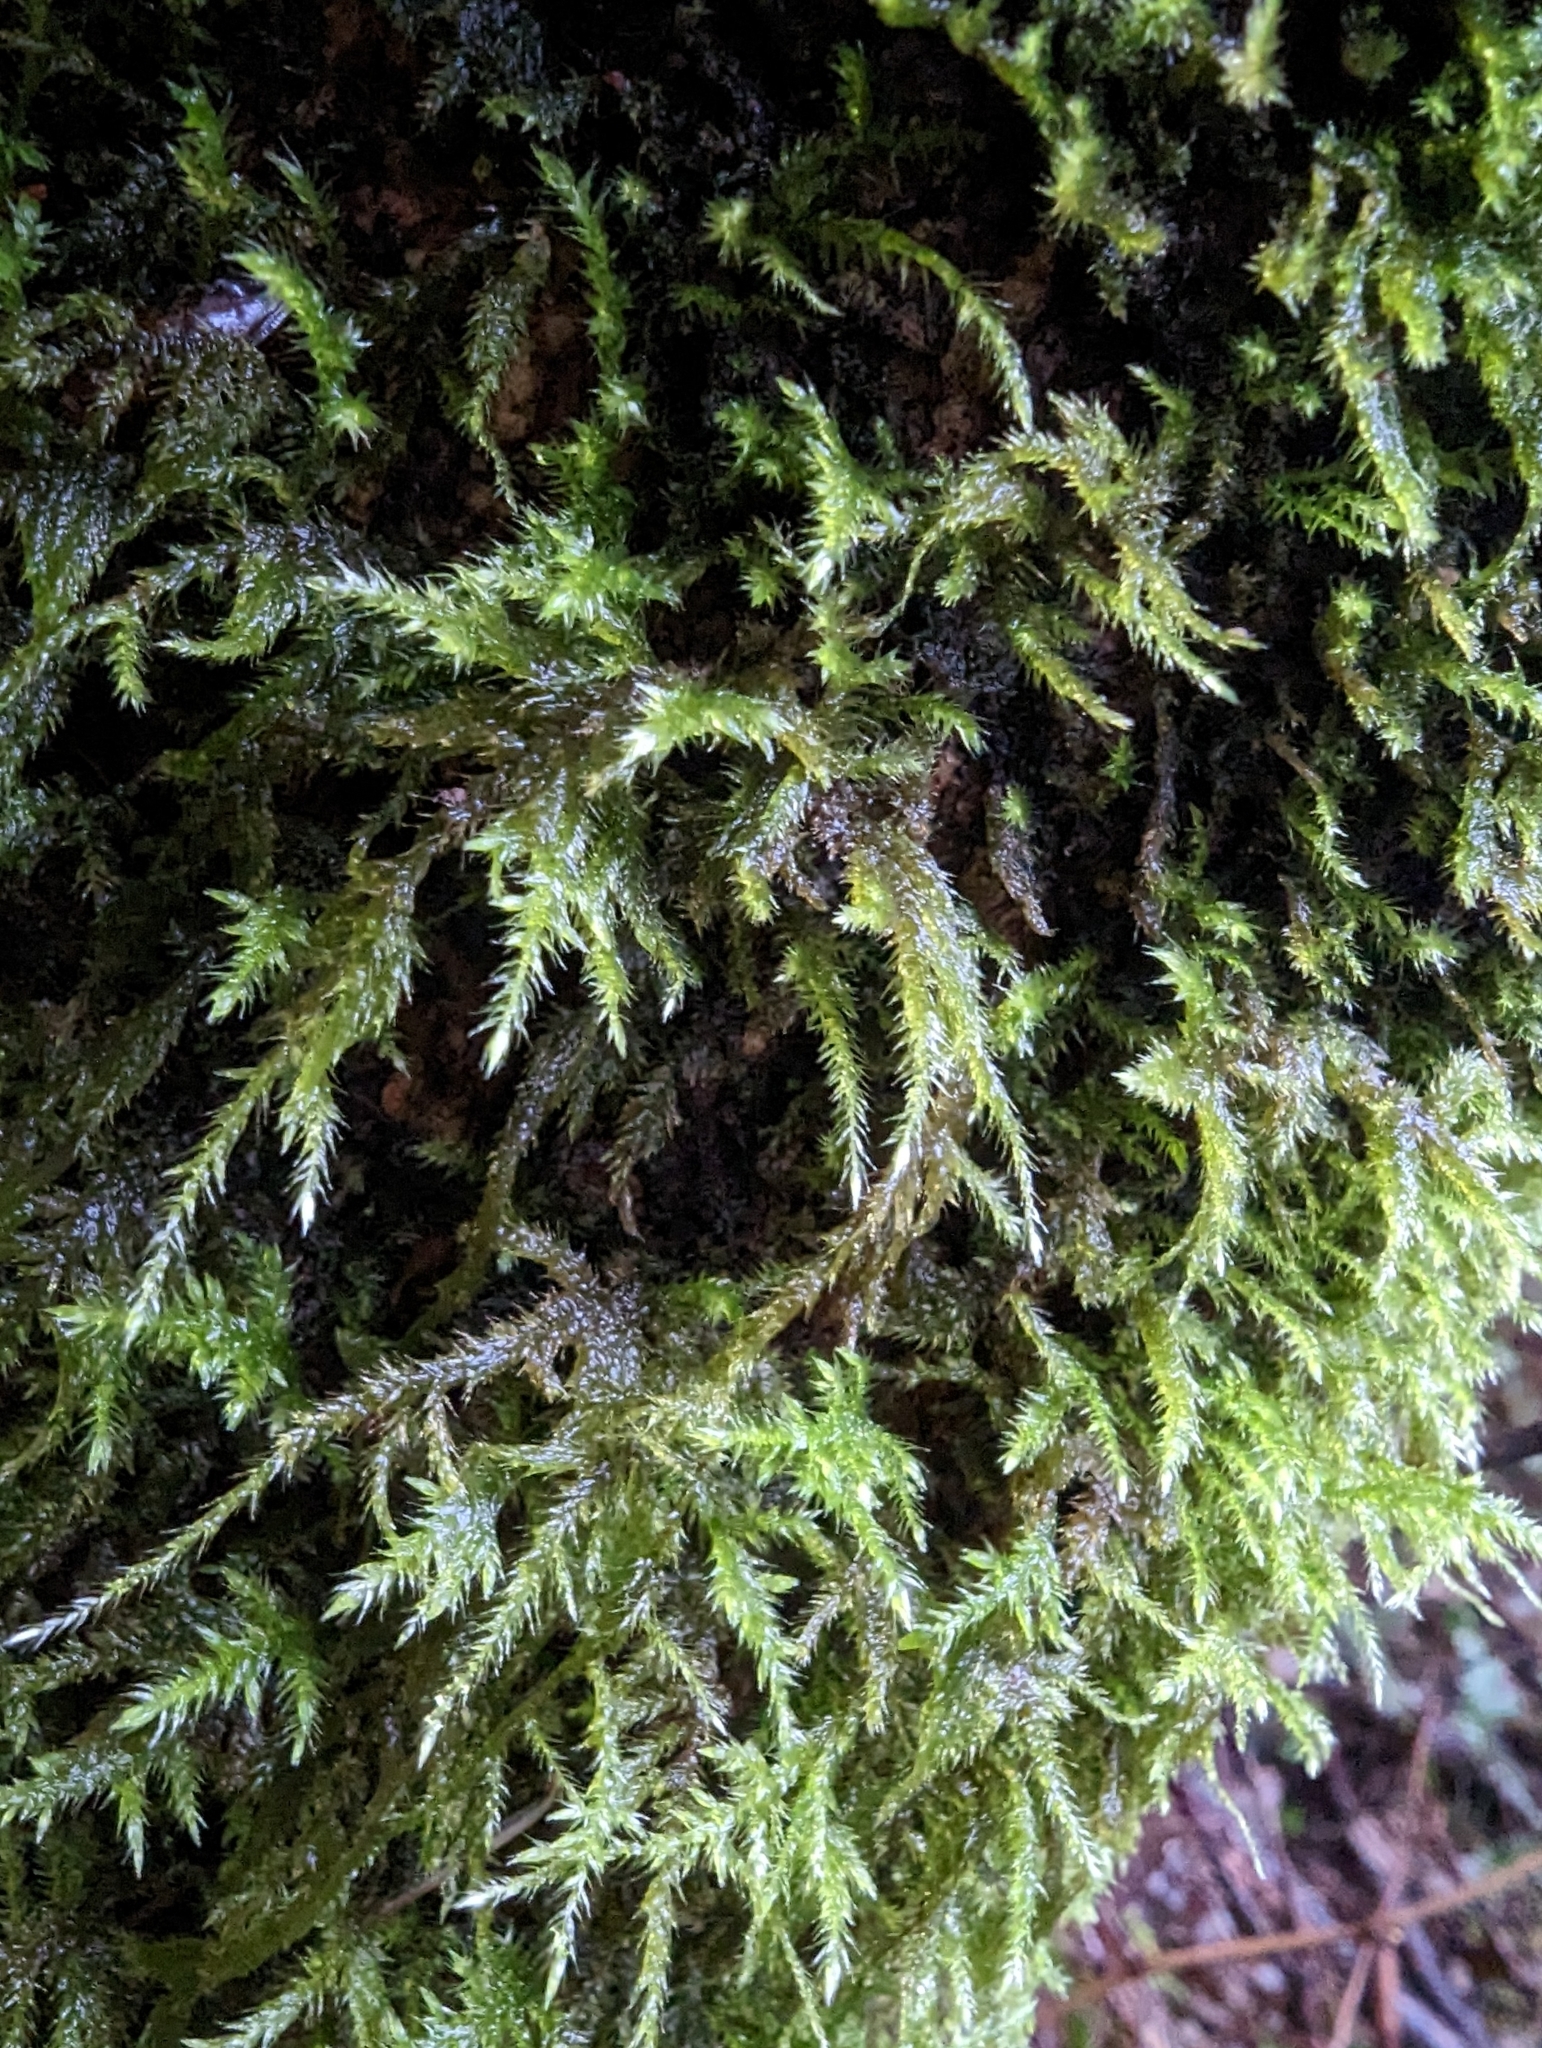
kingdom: Plantae
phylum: Bryophyta
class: Bryopsida
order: Hypnales
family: Lembophyllaceae
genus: Pseudisothecium
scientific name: Pseudisothecium stoloniferum
